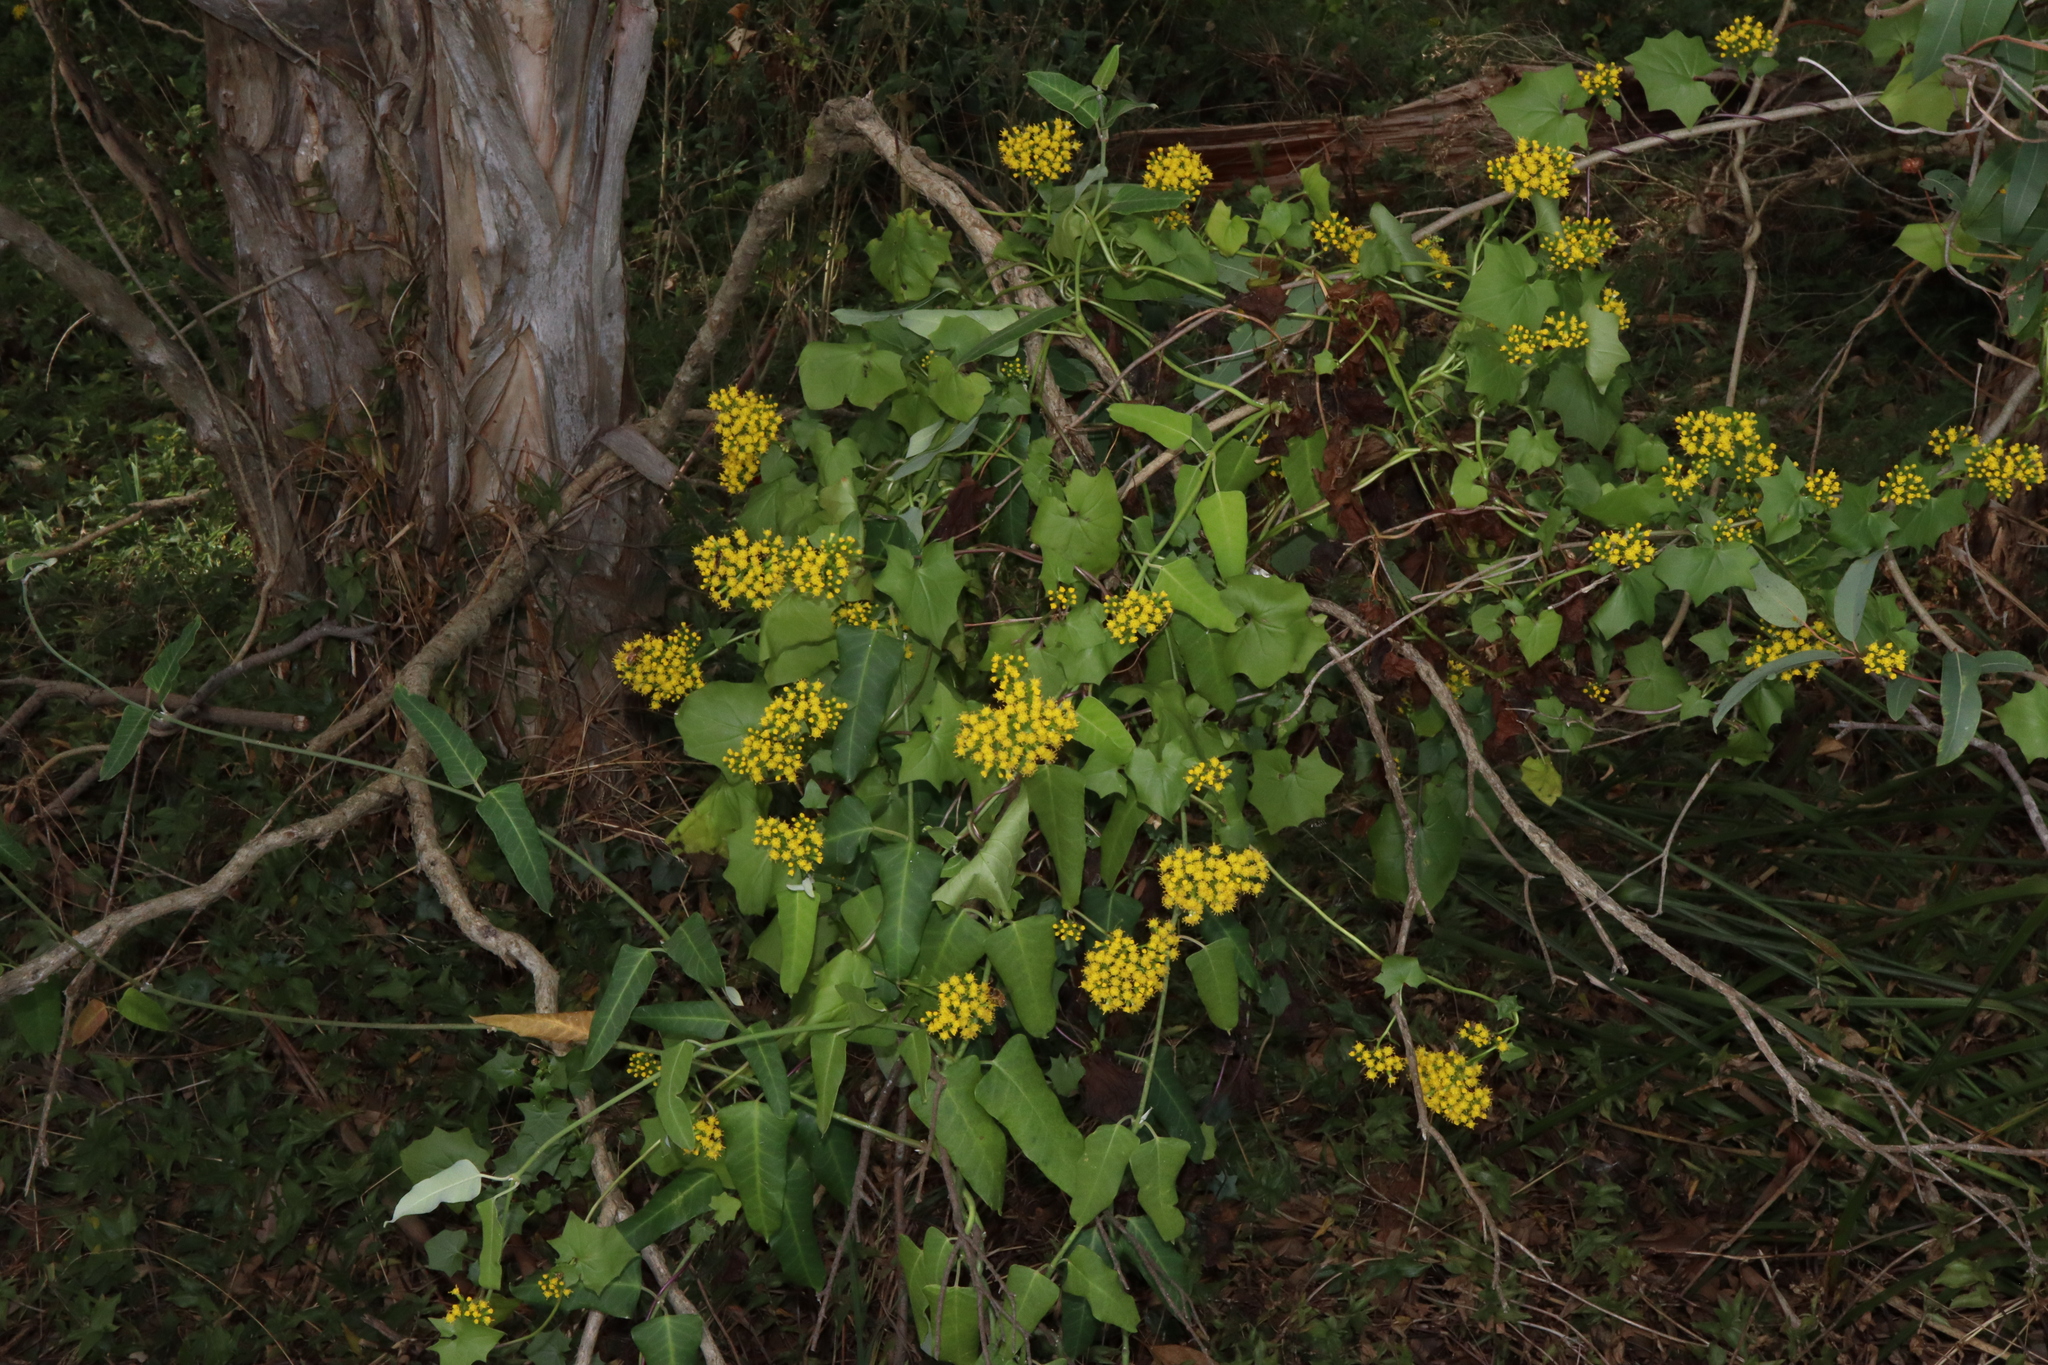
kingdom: Plantae
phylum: Tracheophyta
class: Magnoliopsida
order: Asterales
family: Asteraceae
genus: Delairea
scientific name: Delairea odorata
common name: Cape-ivy
